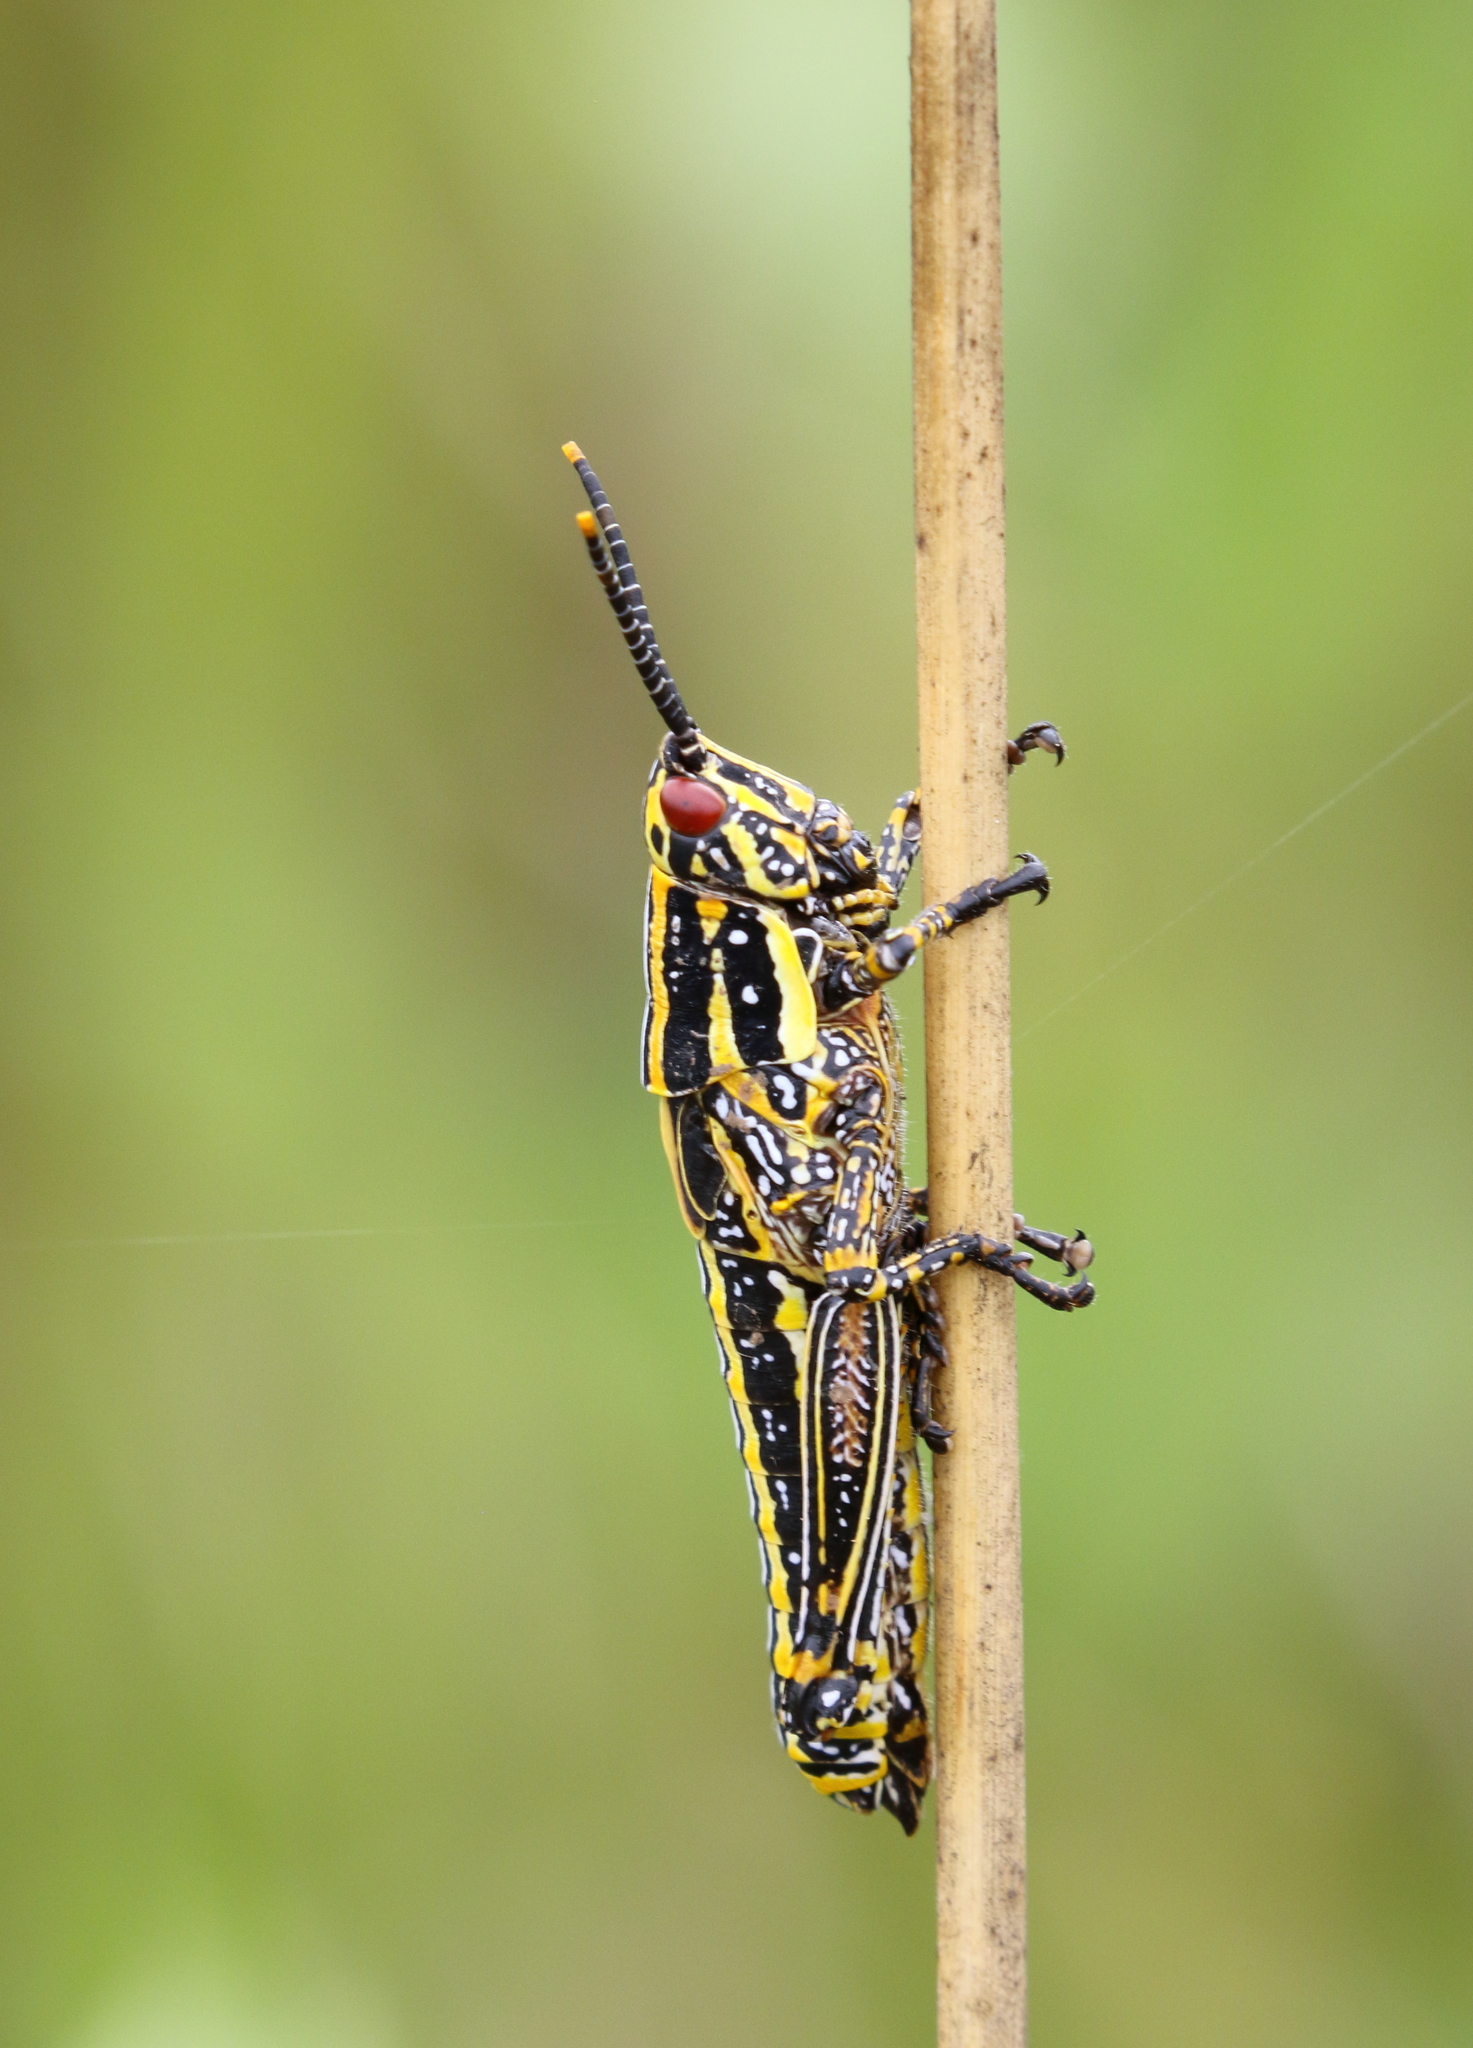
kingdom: Animalia
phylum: Arthropoda
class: Insecta
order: Orthoptera
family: Pyrgomorphidae
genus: Zonocerus
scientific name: Zonocerus elegans
